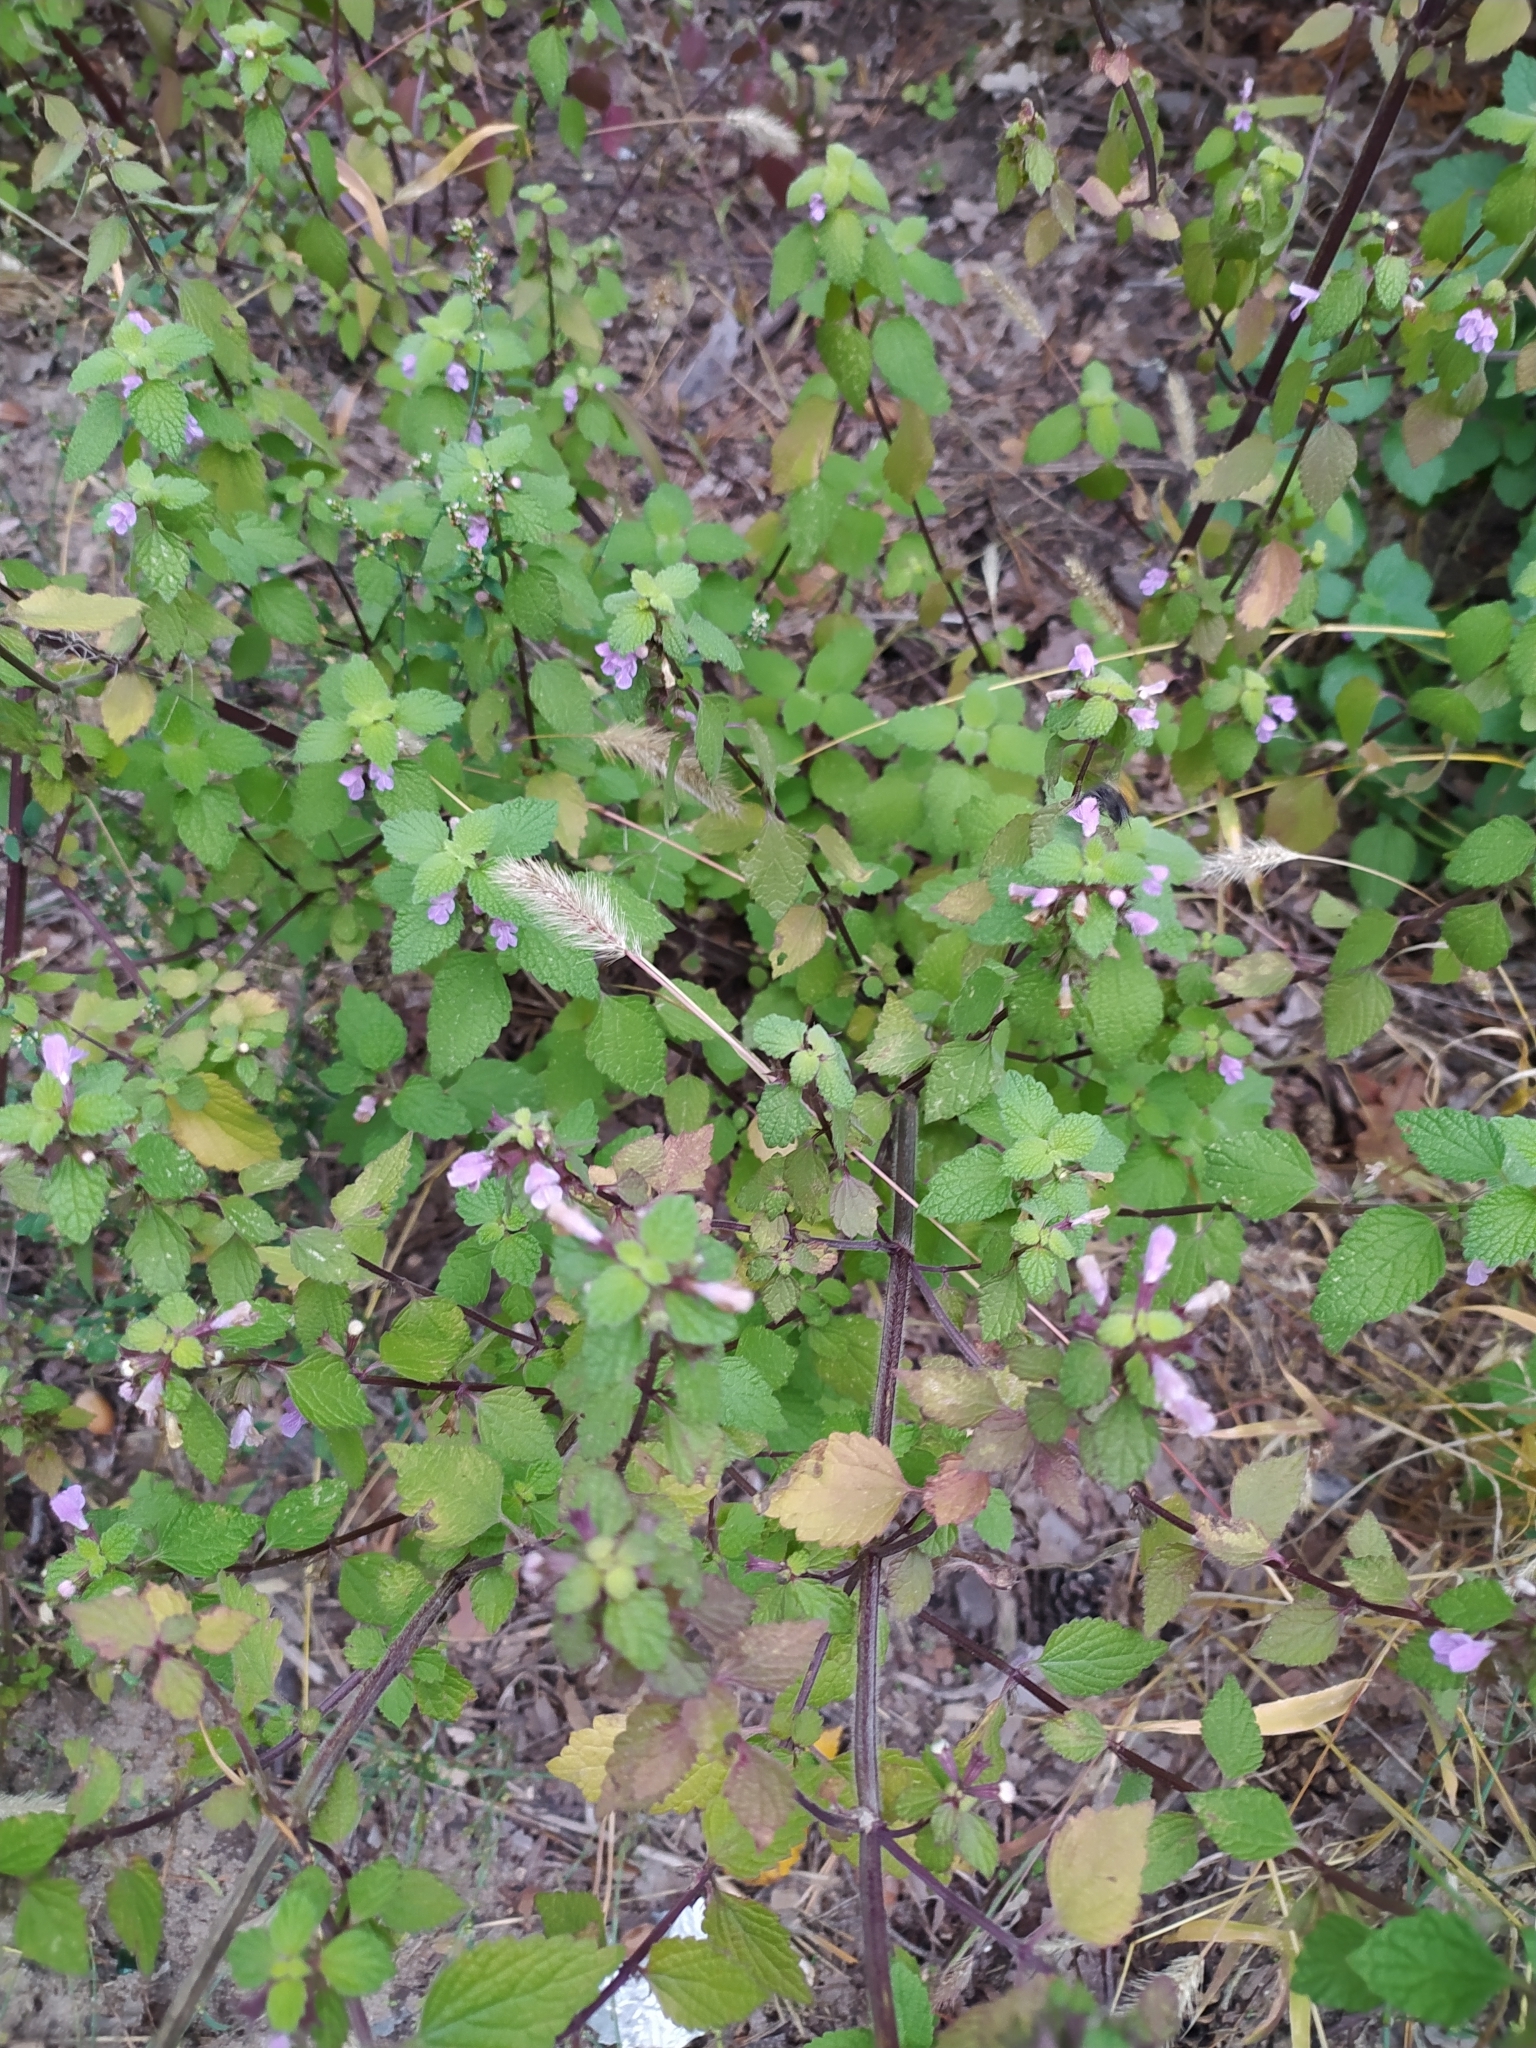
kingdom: Plantae
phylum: Tracheophyta
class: Magnoliopsida
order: Lamiales
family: Lamiaceae
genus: Ballota
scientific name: Ballota nigra
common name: Black horehound
